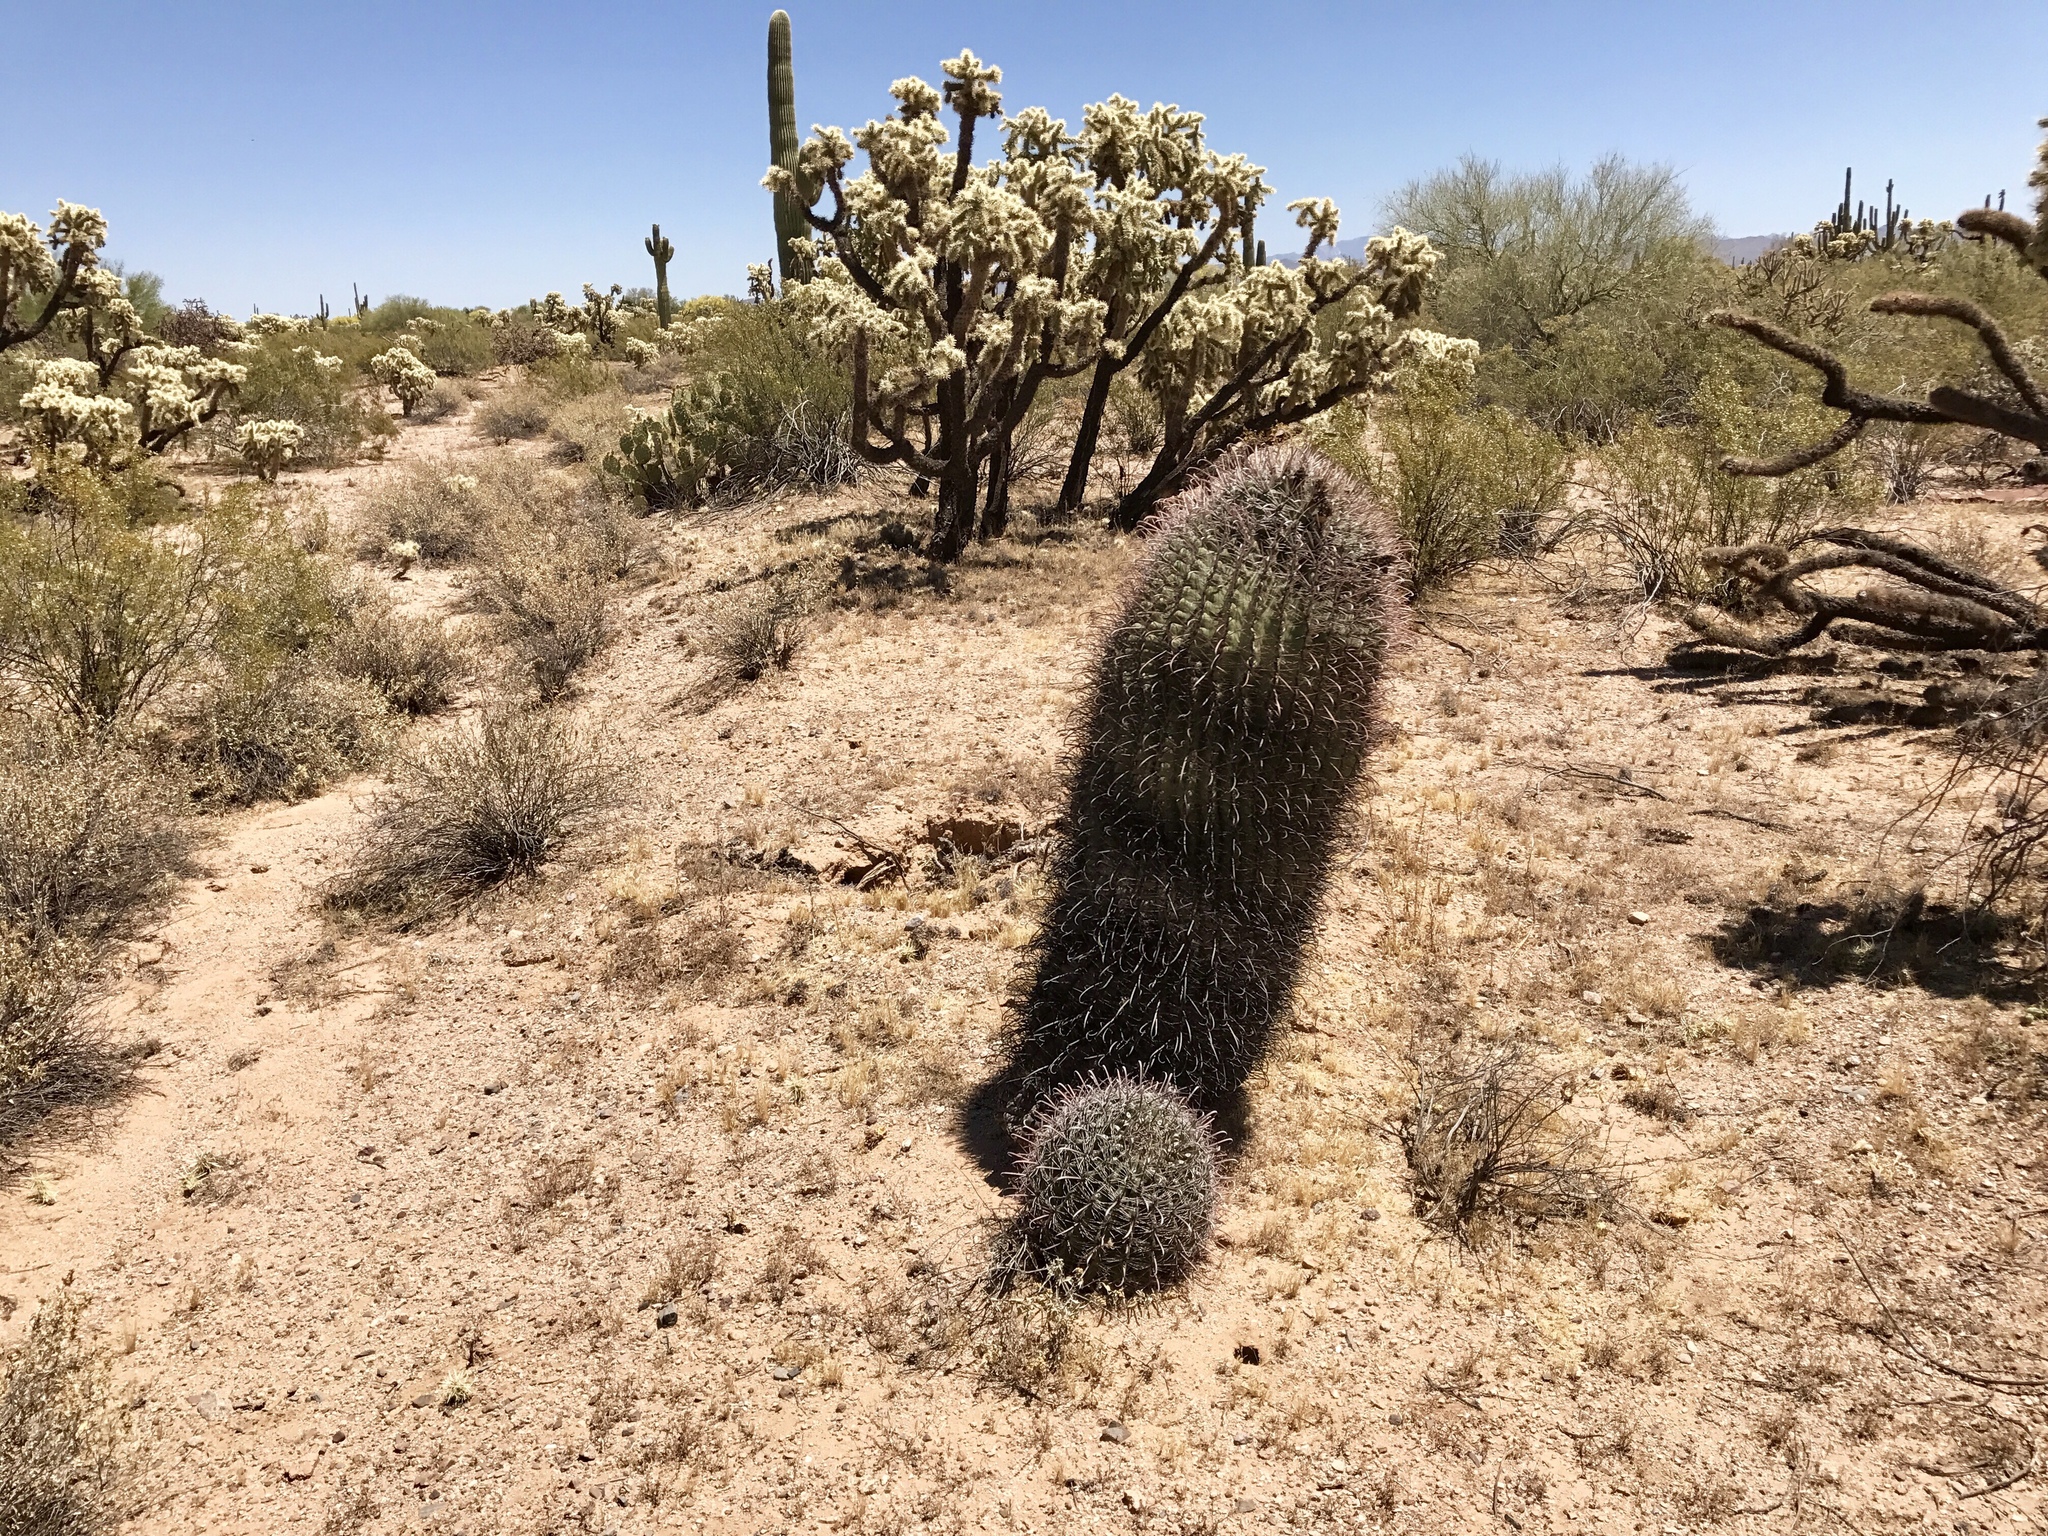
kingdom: Plantae
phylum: Tracheophyta
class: Magnoliopsida
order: Caryophyllales
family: Cactaceae
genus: Ferocactus
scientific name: Ferocactus wislizeni
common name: Candy barrel cactus
